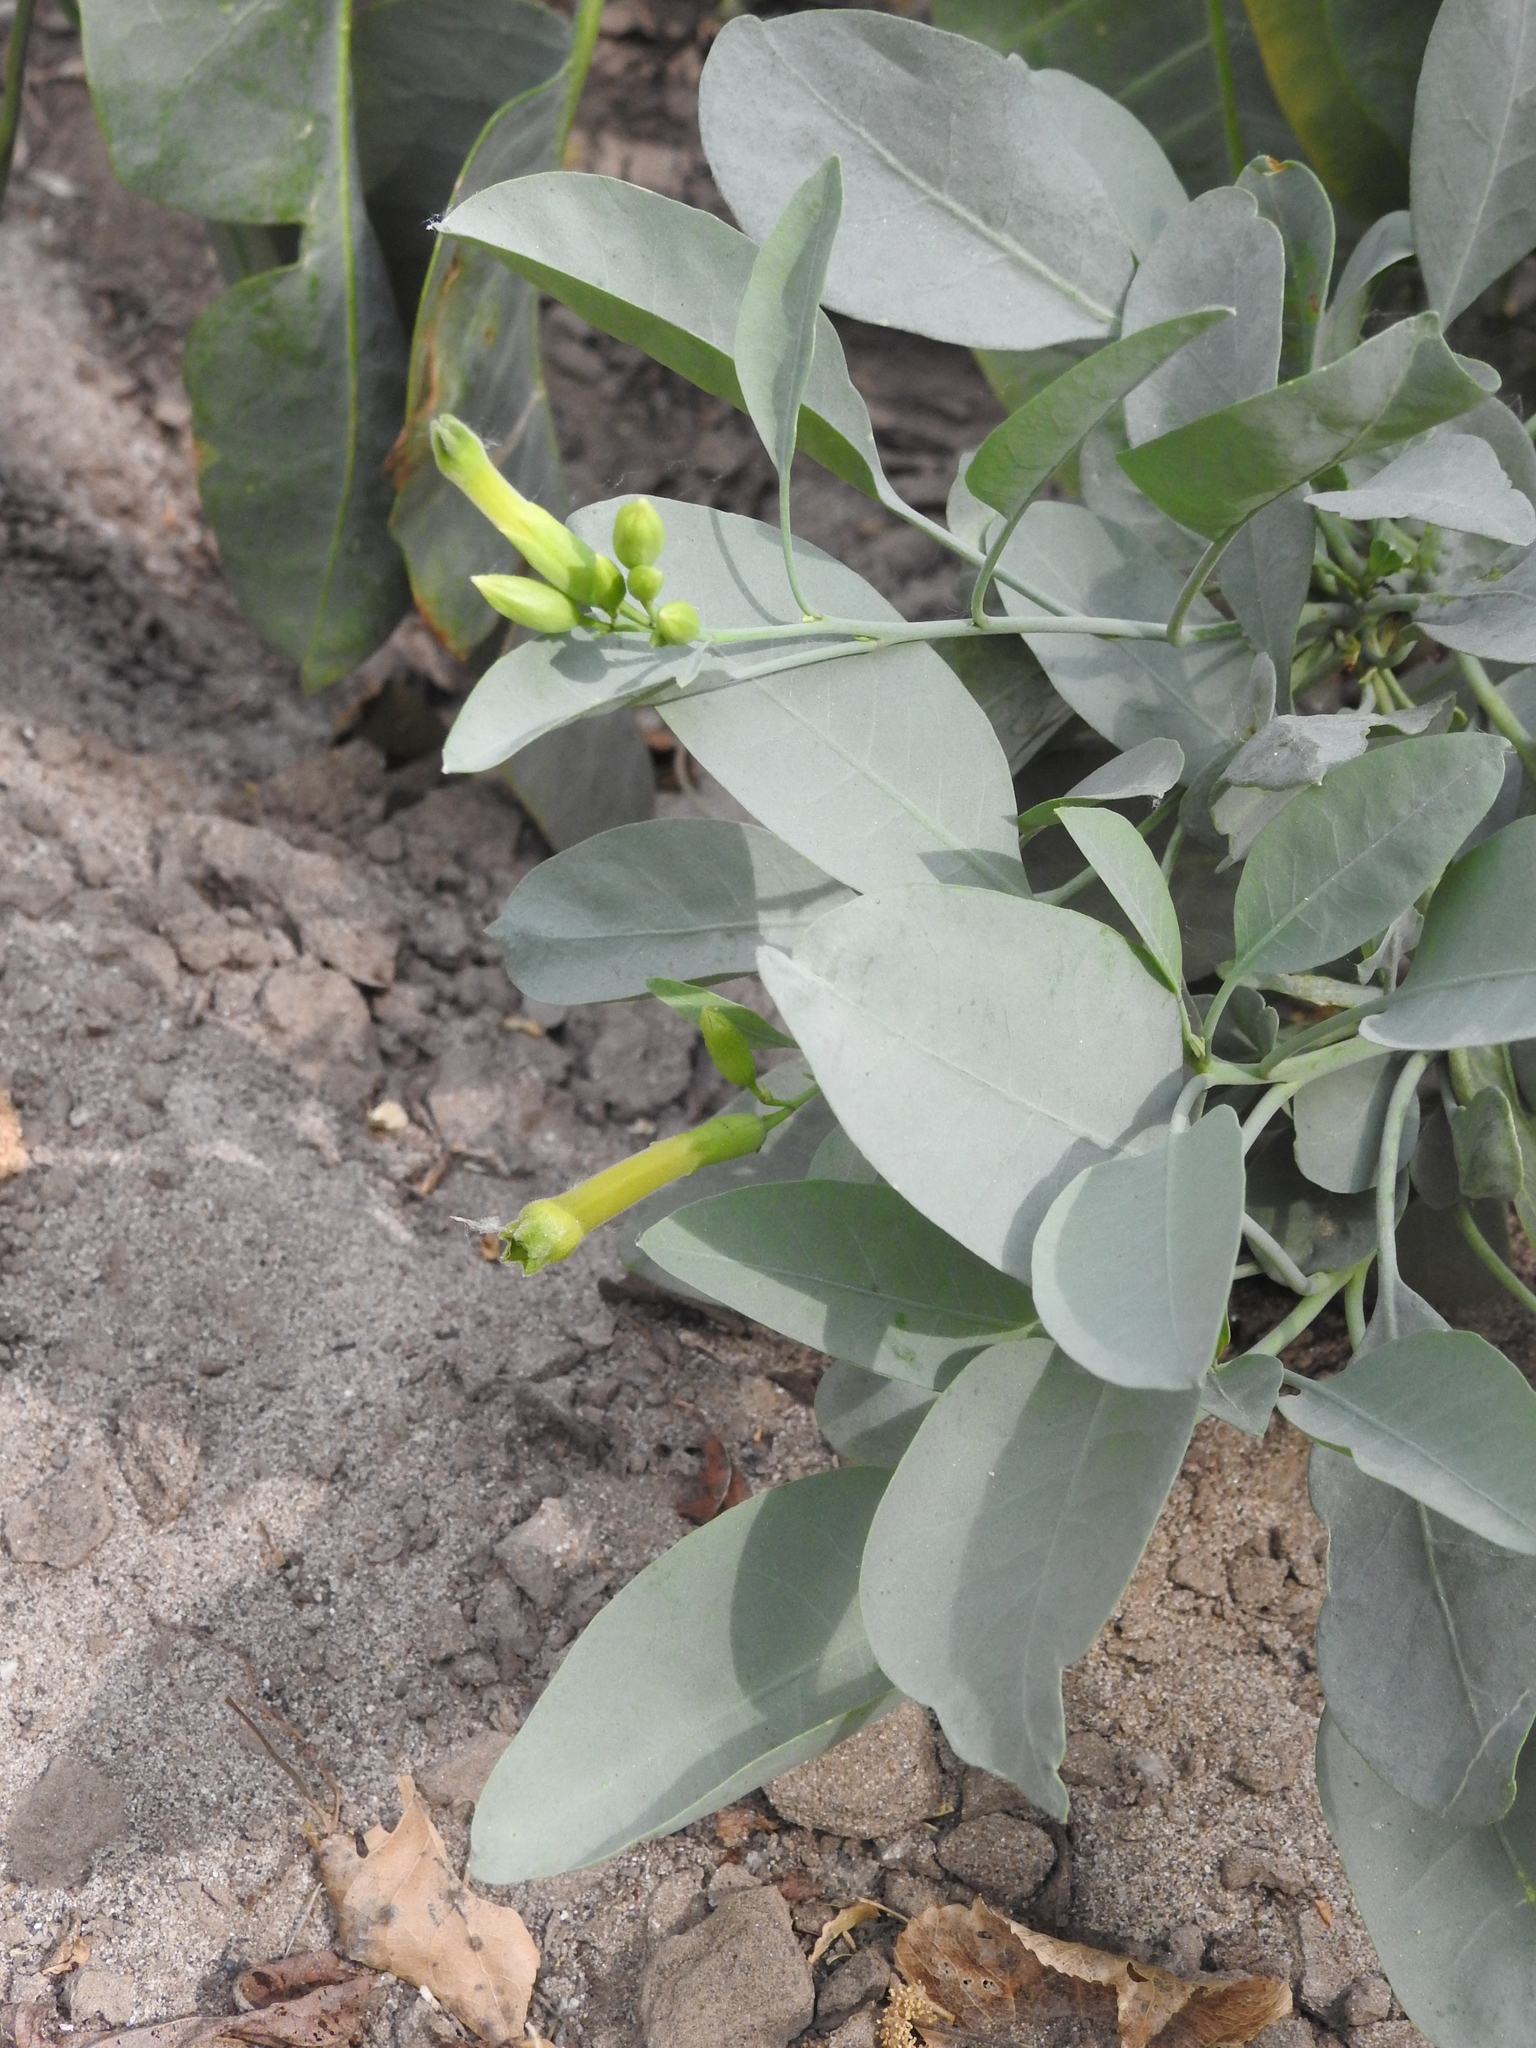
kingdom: Plantae
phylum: Tracheophyta
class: Magnoliopsida
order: Solanales
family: Solanaceae
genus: Nicotiana
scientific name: Nicotiana glauca
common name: Tree tobacco
